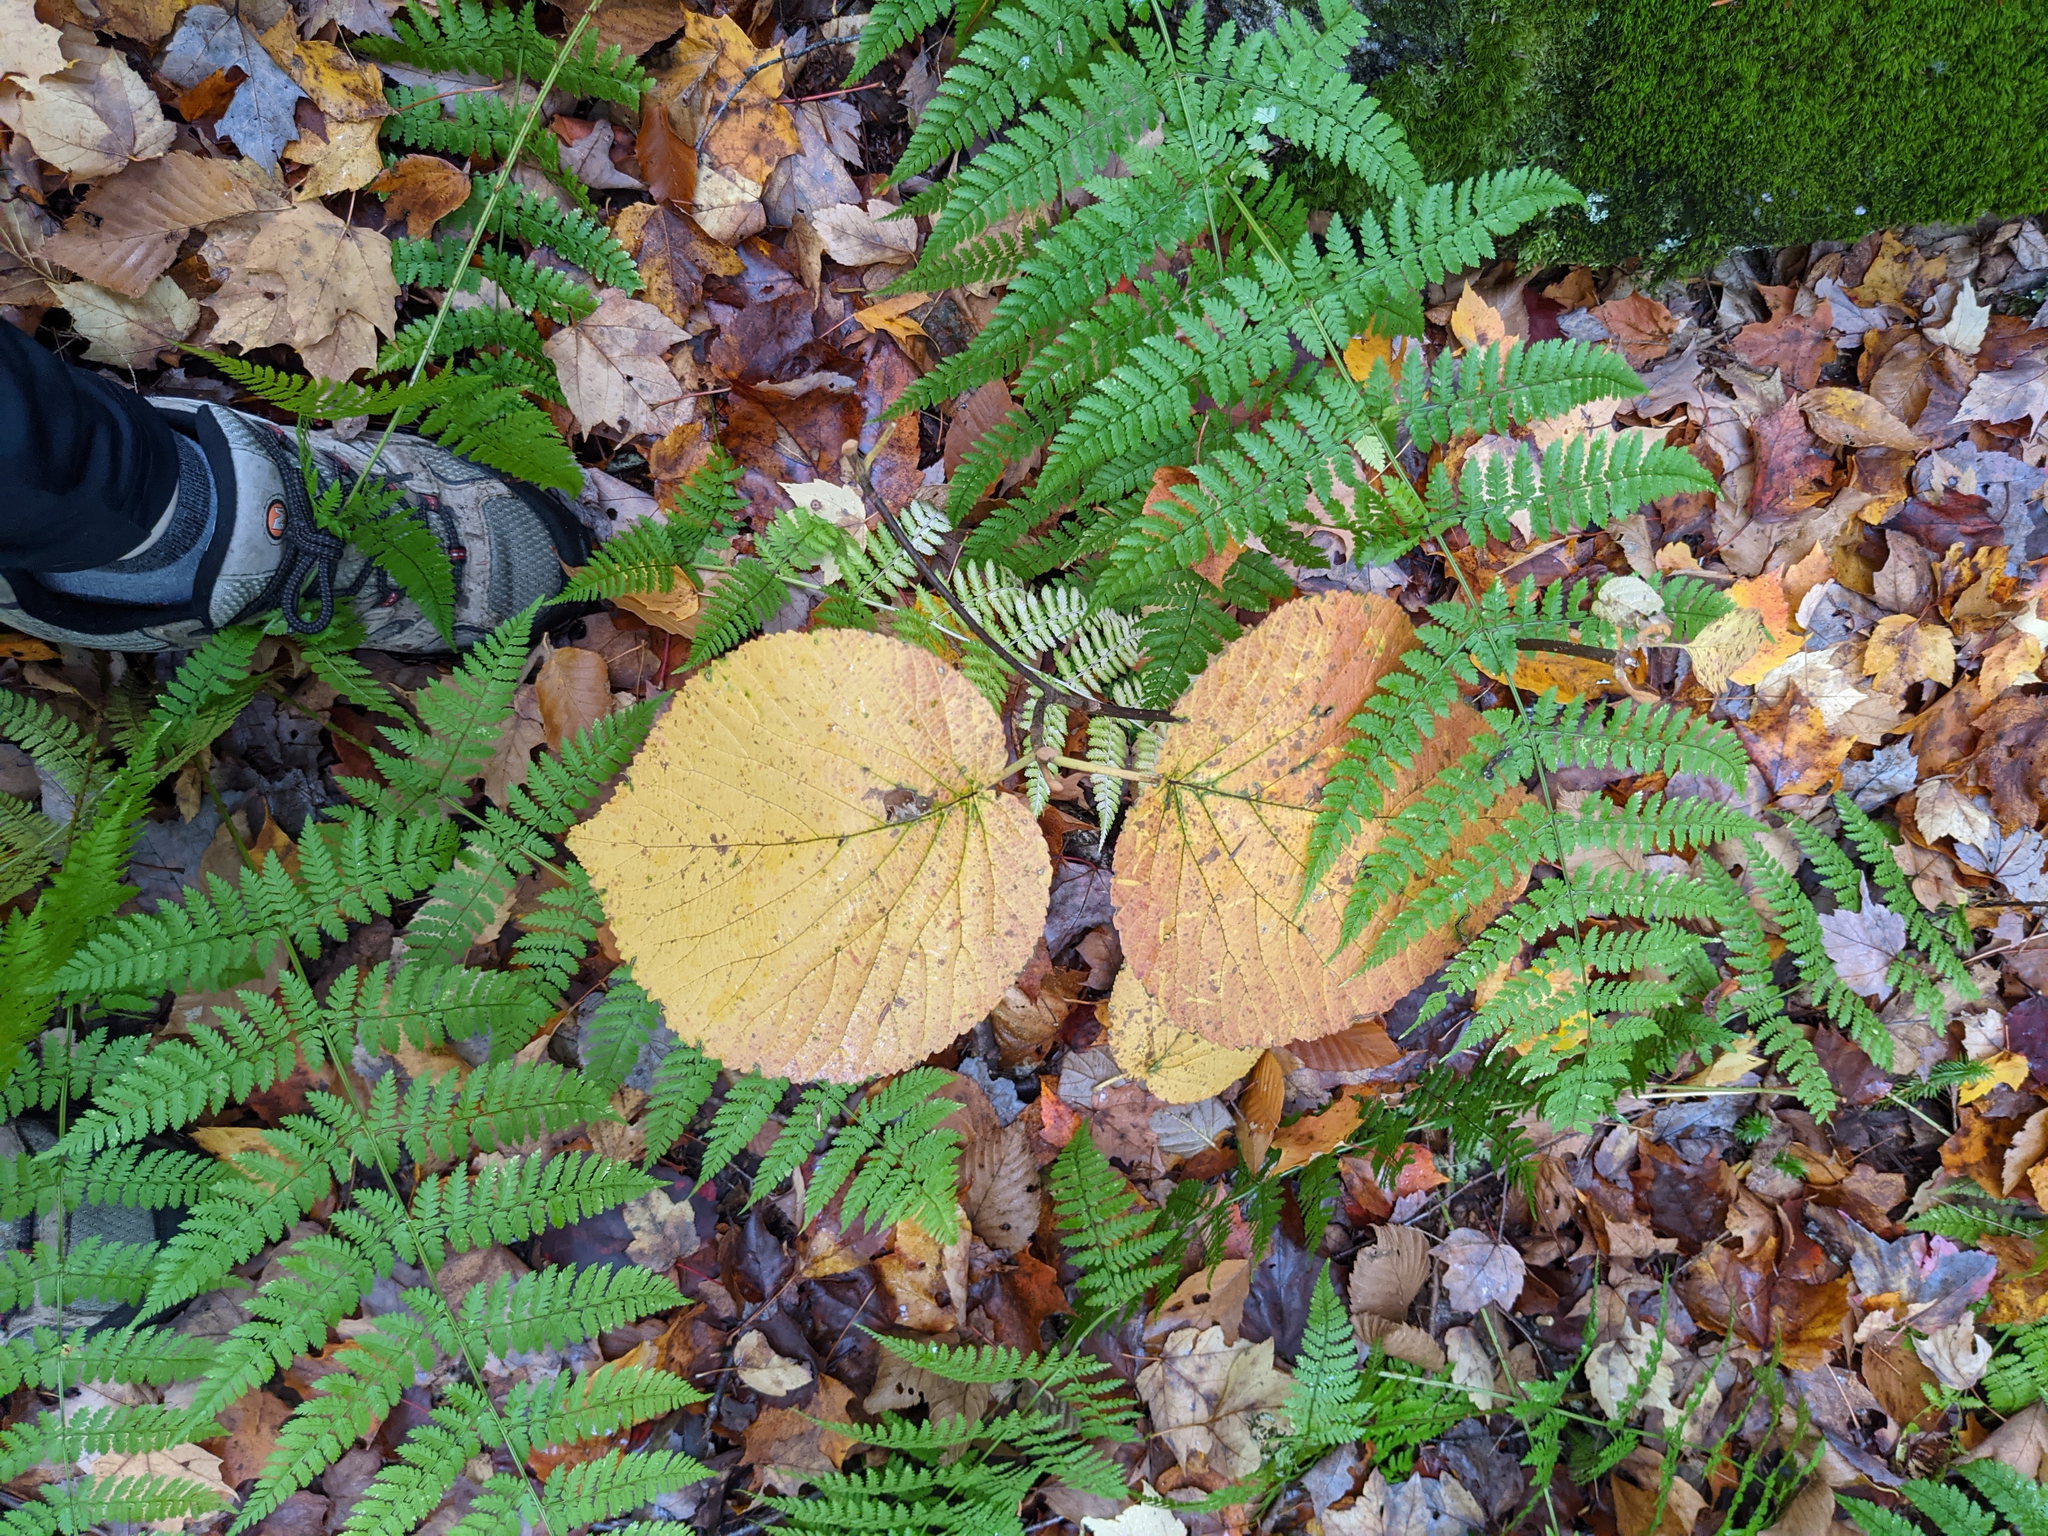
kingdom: Plantae
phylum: Tracheophyta
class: Magnoliopsida
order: Dipsacales
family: Viburnaceae
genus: Viburnum
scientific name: Viburnum lantanoides
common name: Hobblebush
